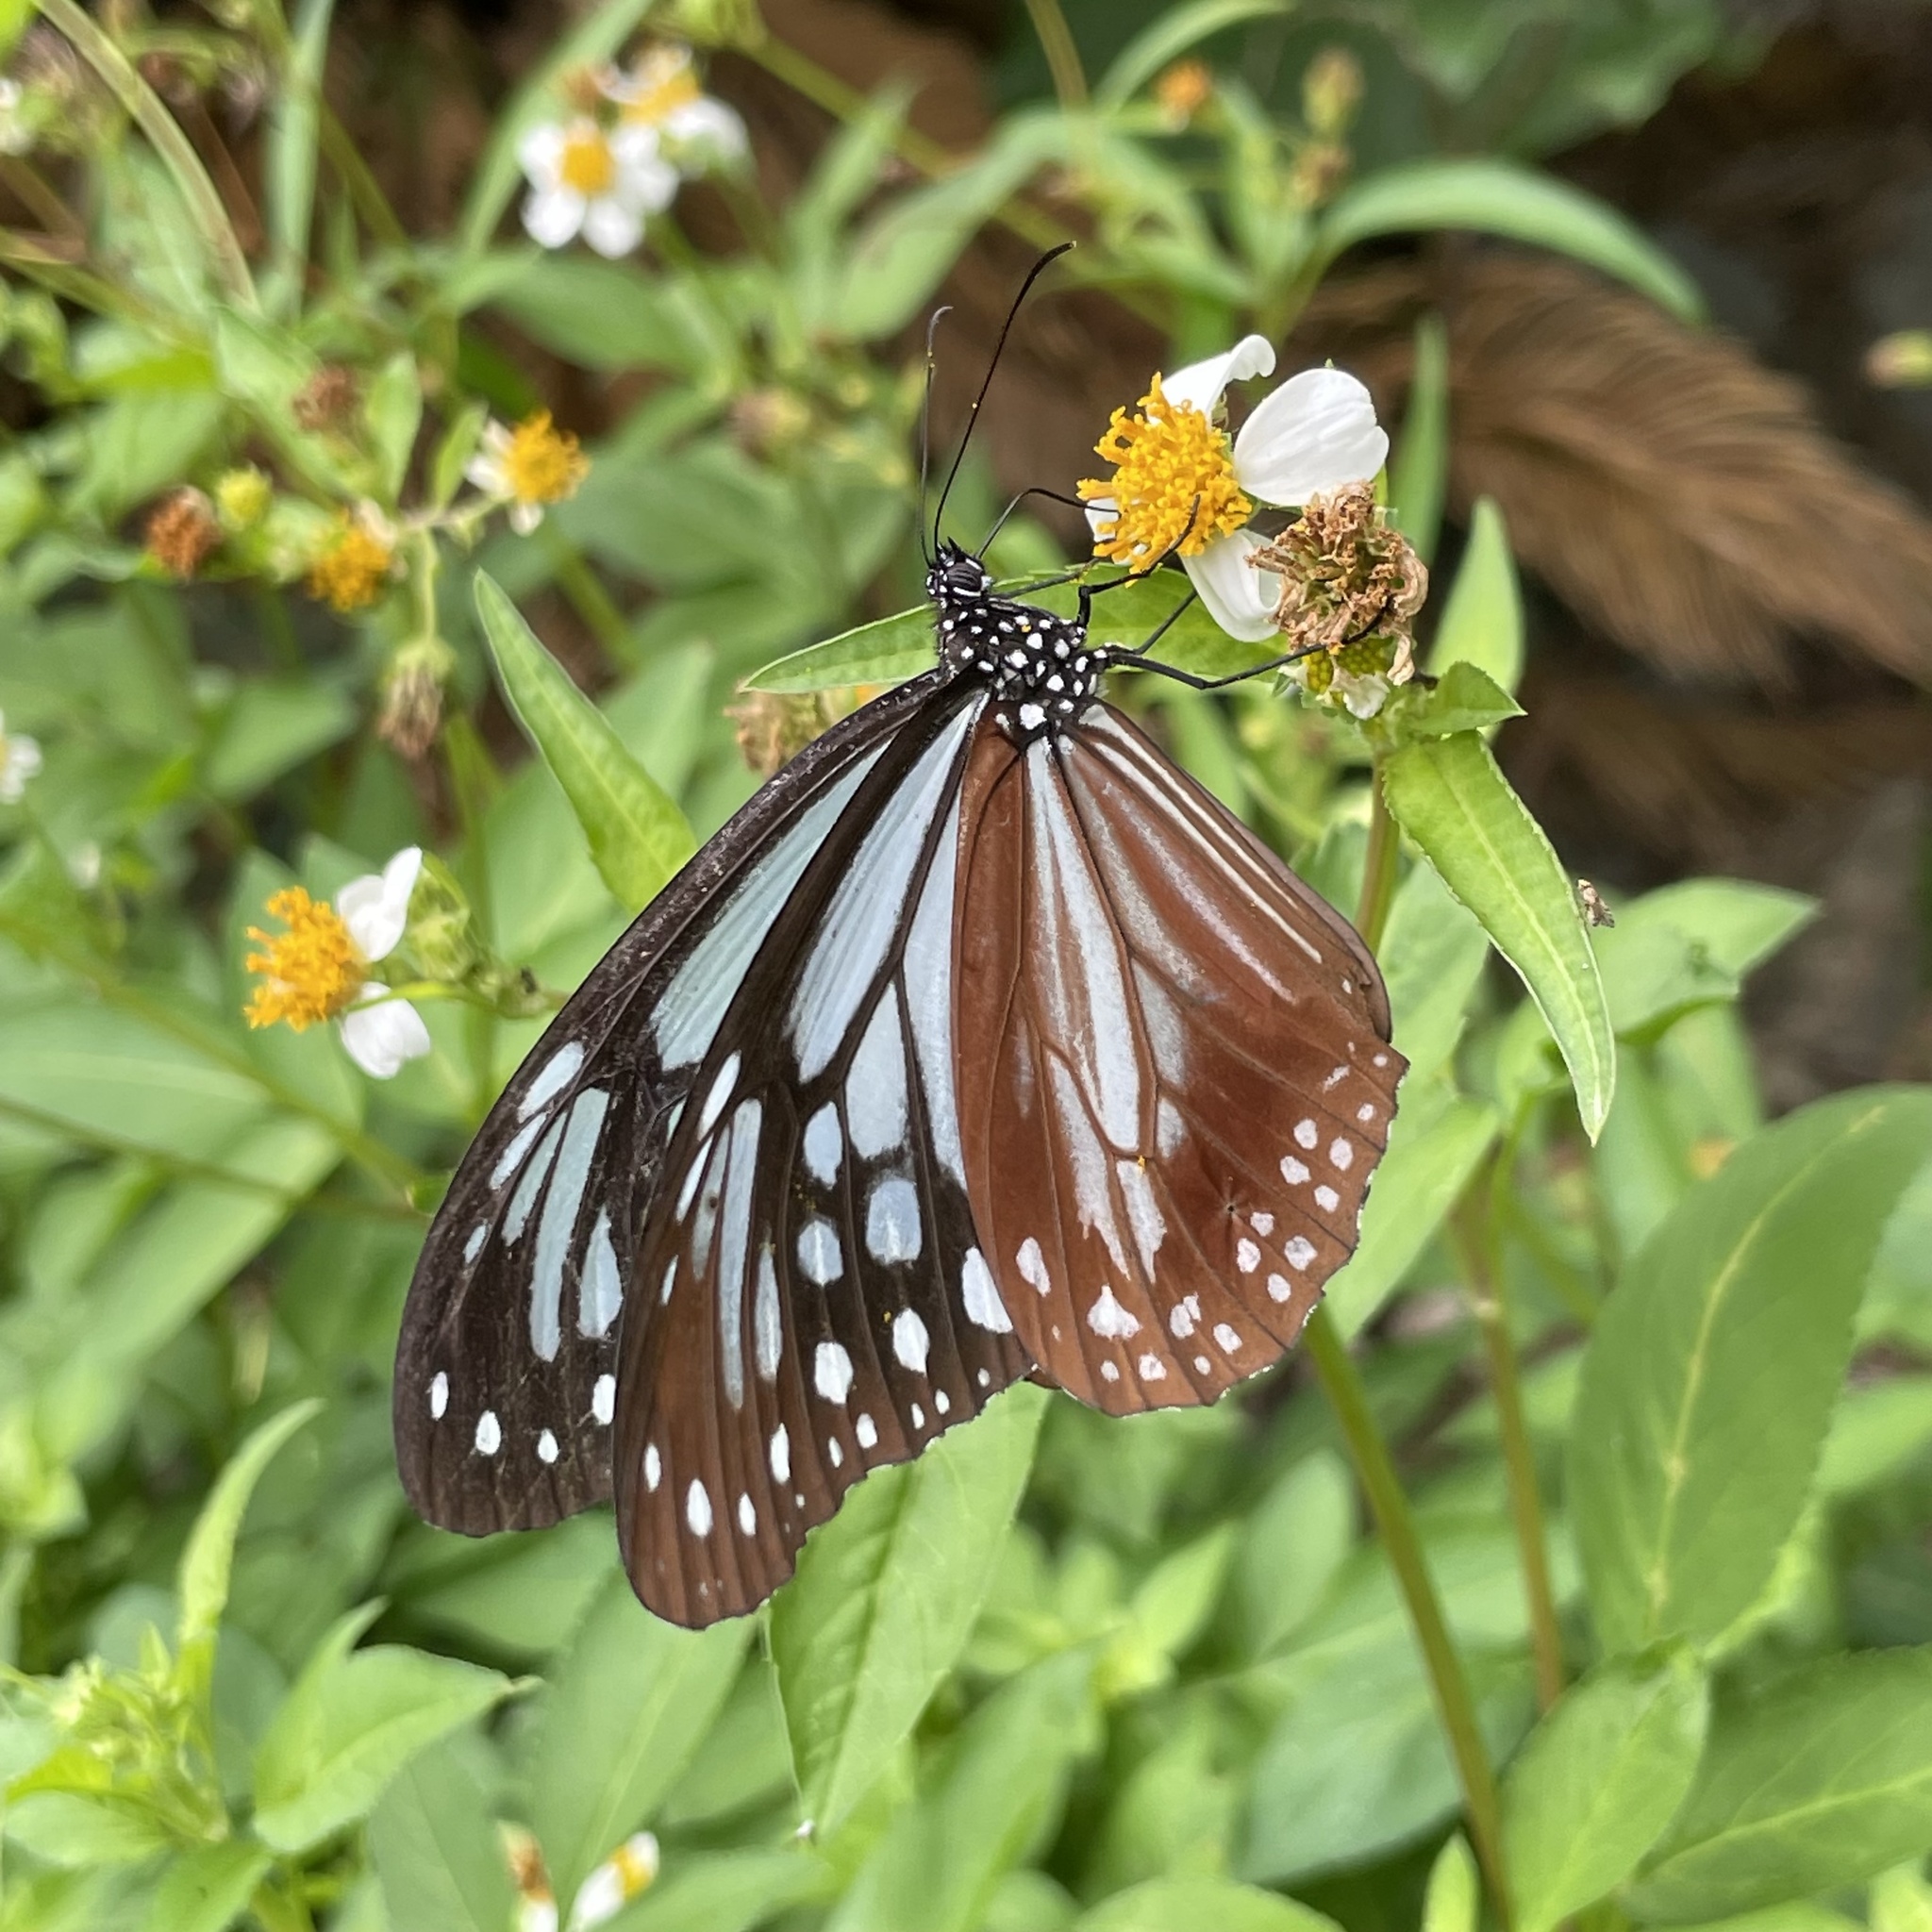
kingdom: Animalia
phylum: Arthropoda
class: Insecta
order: Lepidoptera
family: Nymphalidae
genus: Parantica
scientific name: Parantica sita
